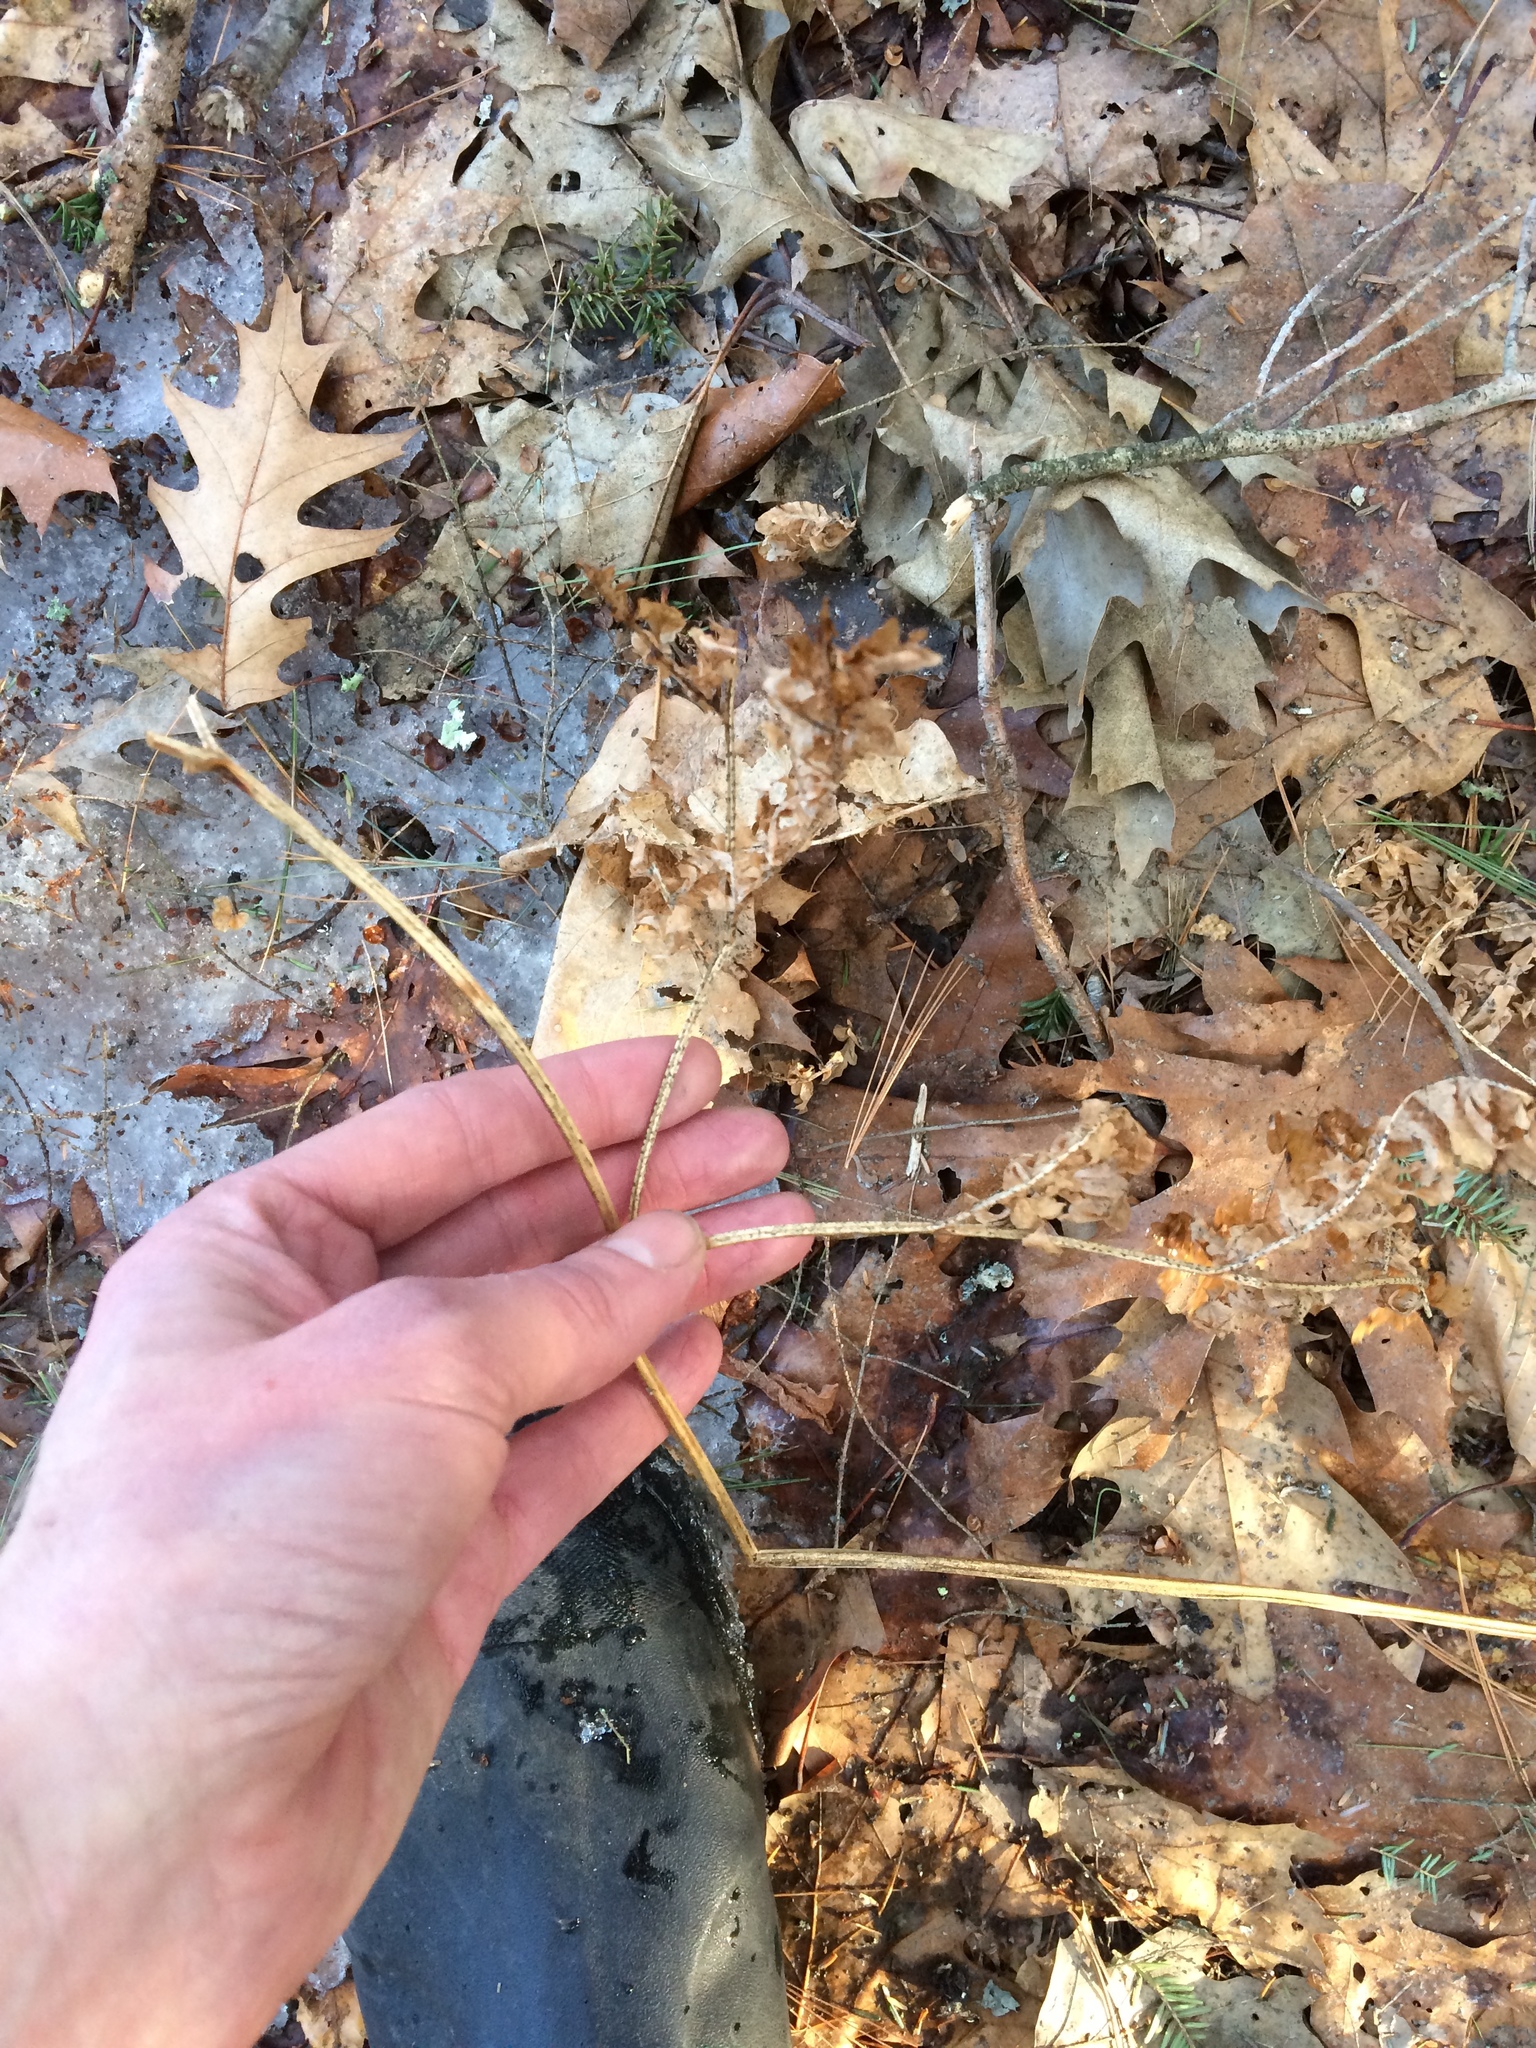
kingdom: Plantae
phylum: Tracheophyta
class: Polypodiopsida
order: Polypodiales
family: Dennstaedtiaceae
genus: Pteridium
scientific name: Pteridium aquilinum
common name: Bracken
